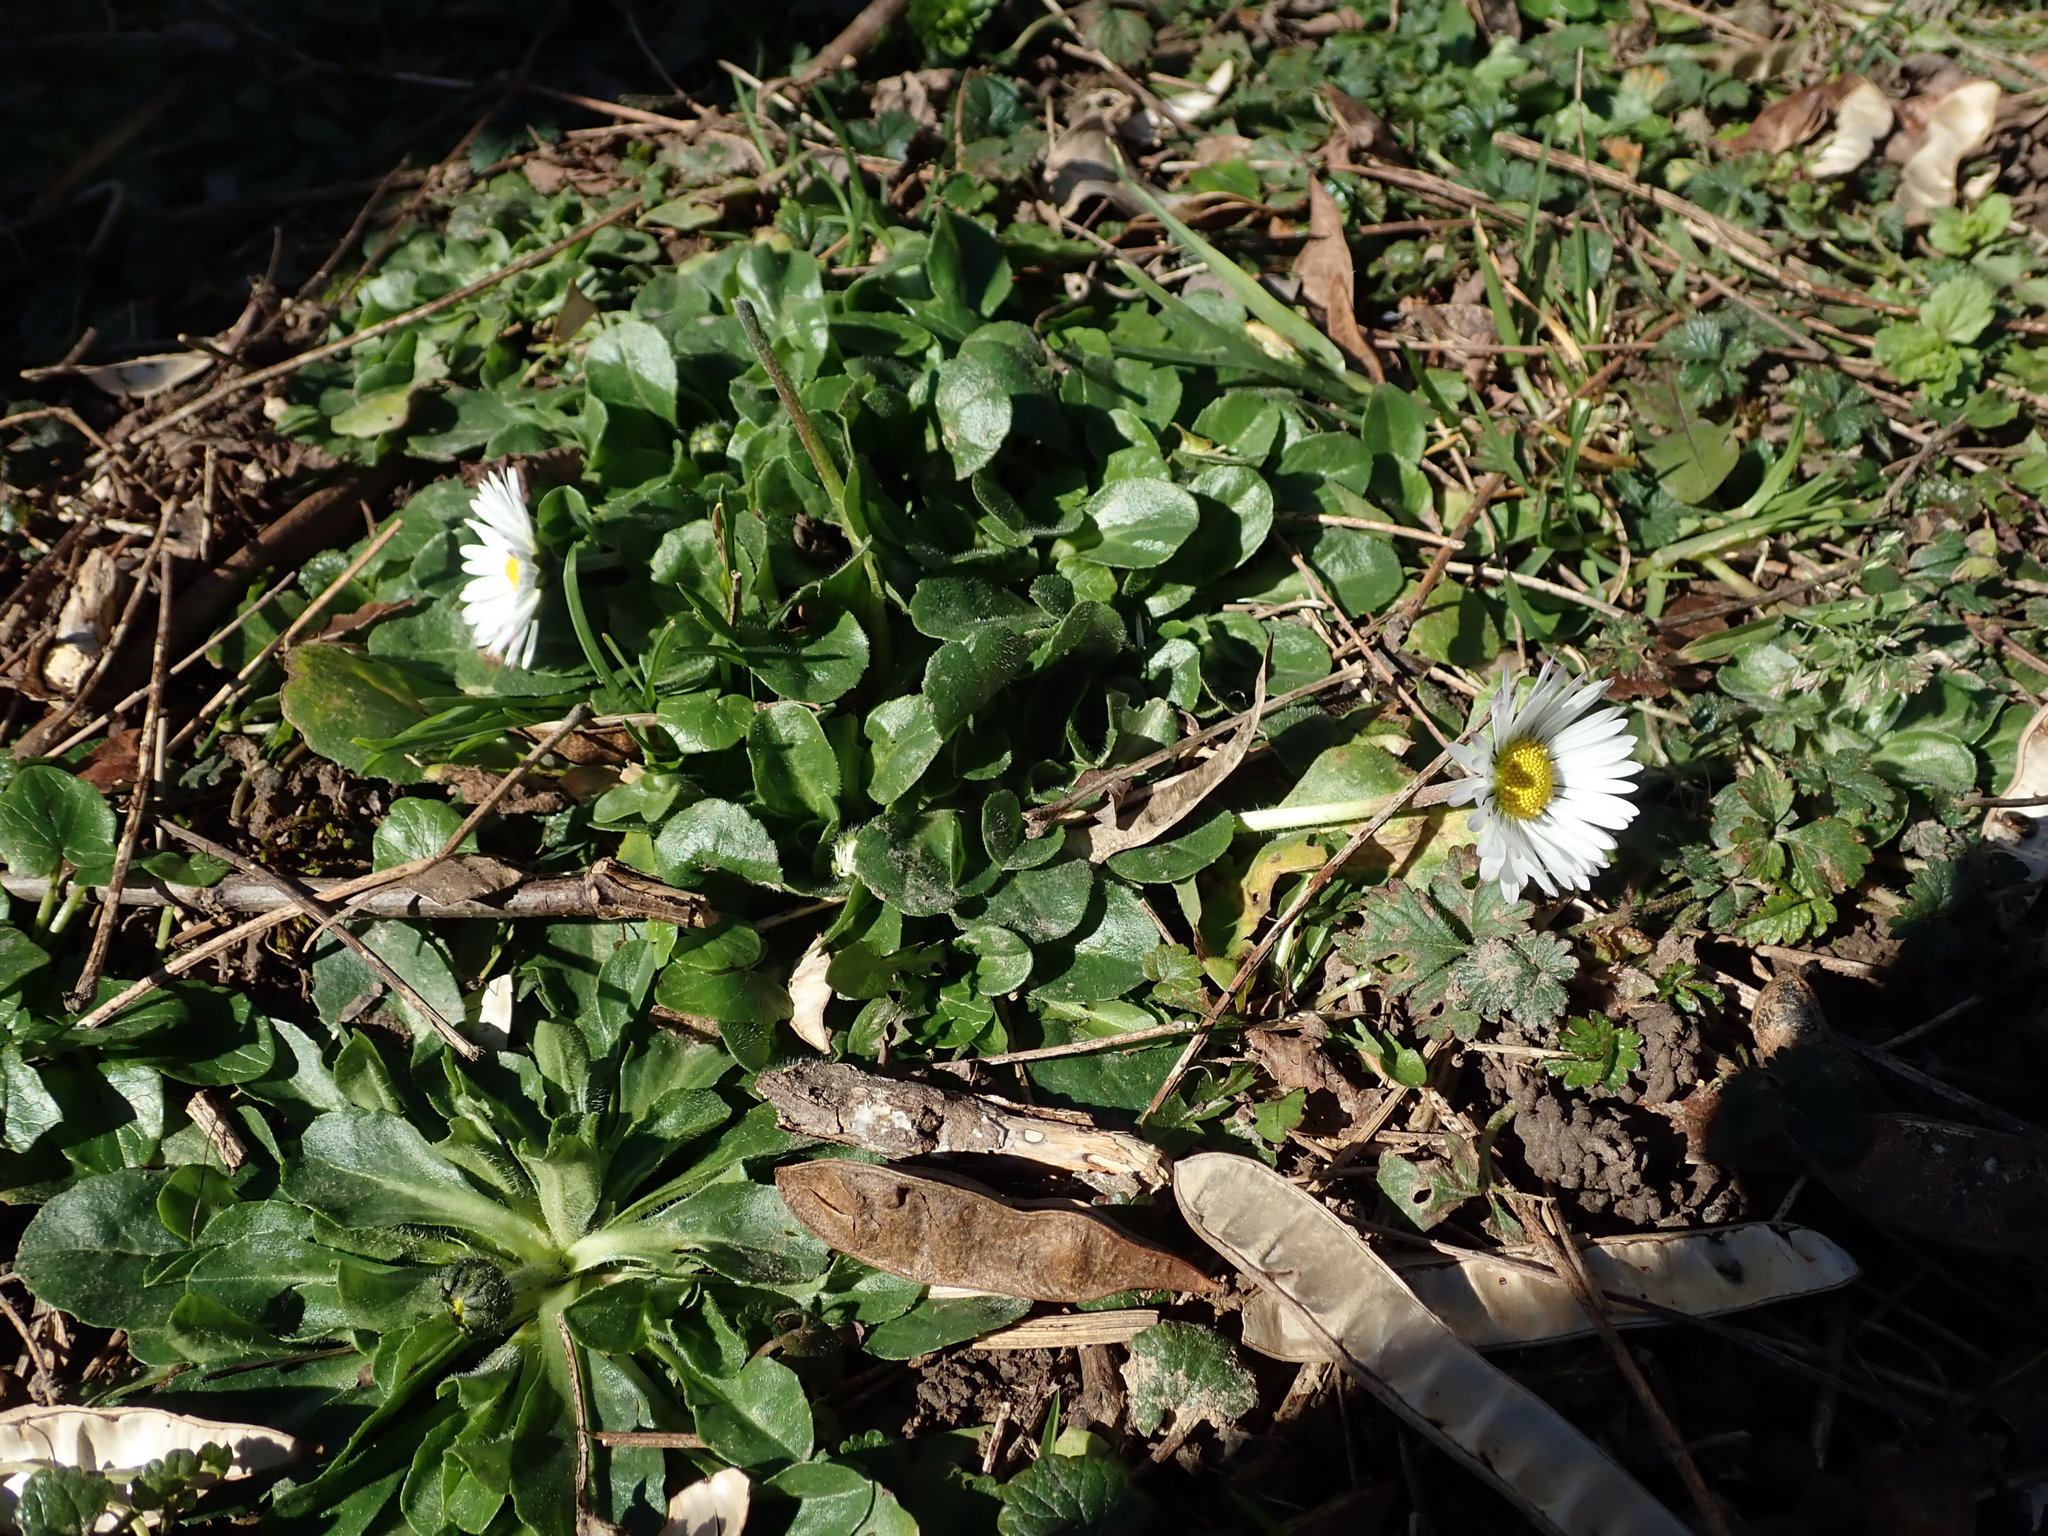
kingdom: Plantae
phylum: Tracheophyta
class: Magnoliopsida
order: Asterales
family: Asteraceae
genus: Bellis
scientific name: Bellis perennis
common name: Lawndaisy
